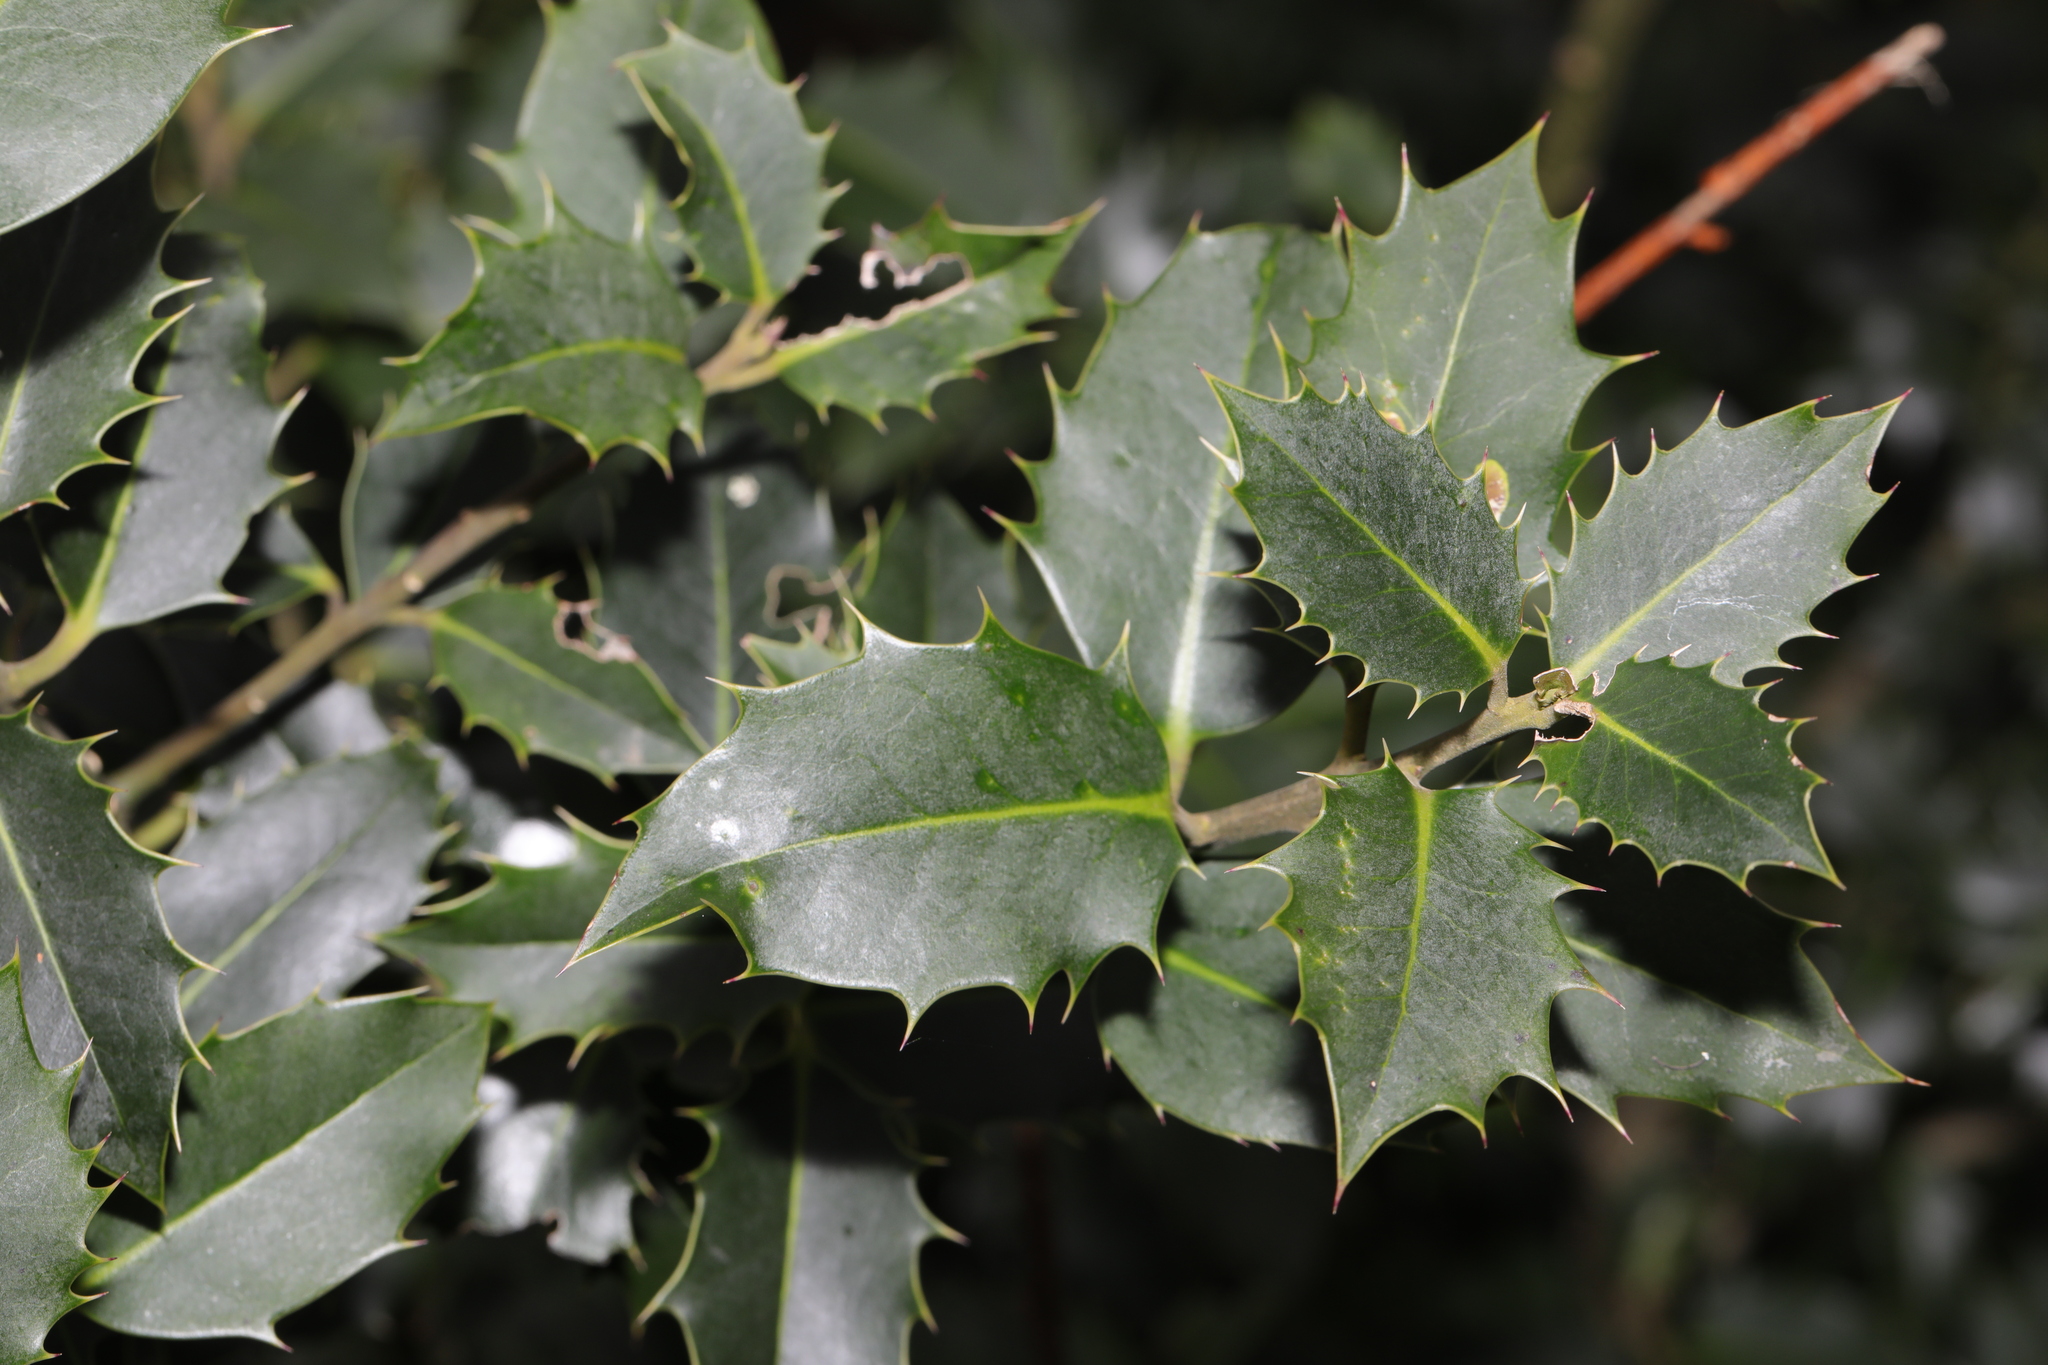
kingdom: Plantae
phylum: Tracheophyta
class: Magnoliopsida
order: Aquifoliales
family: Aquifoliaceae
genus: Ilex
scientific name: Ilex aquifolium
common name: English holly
